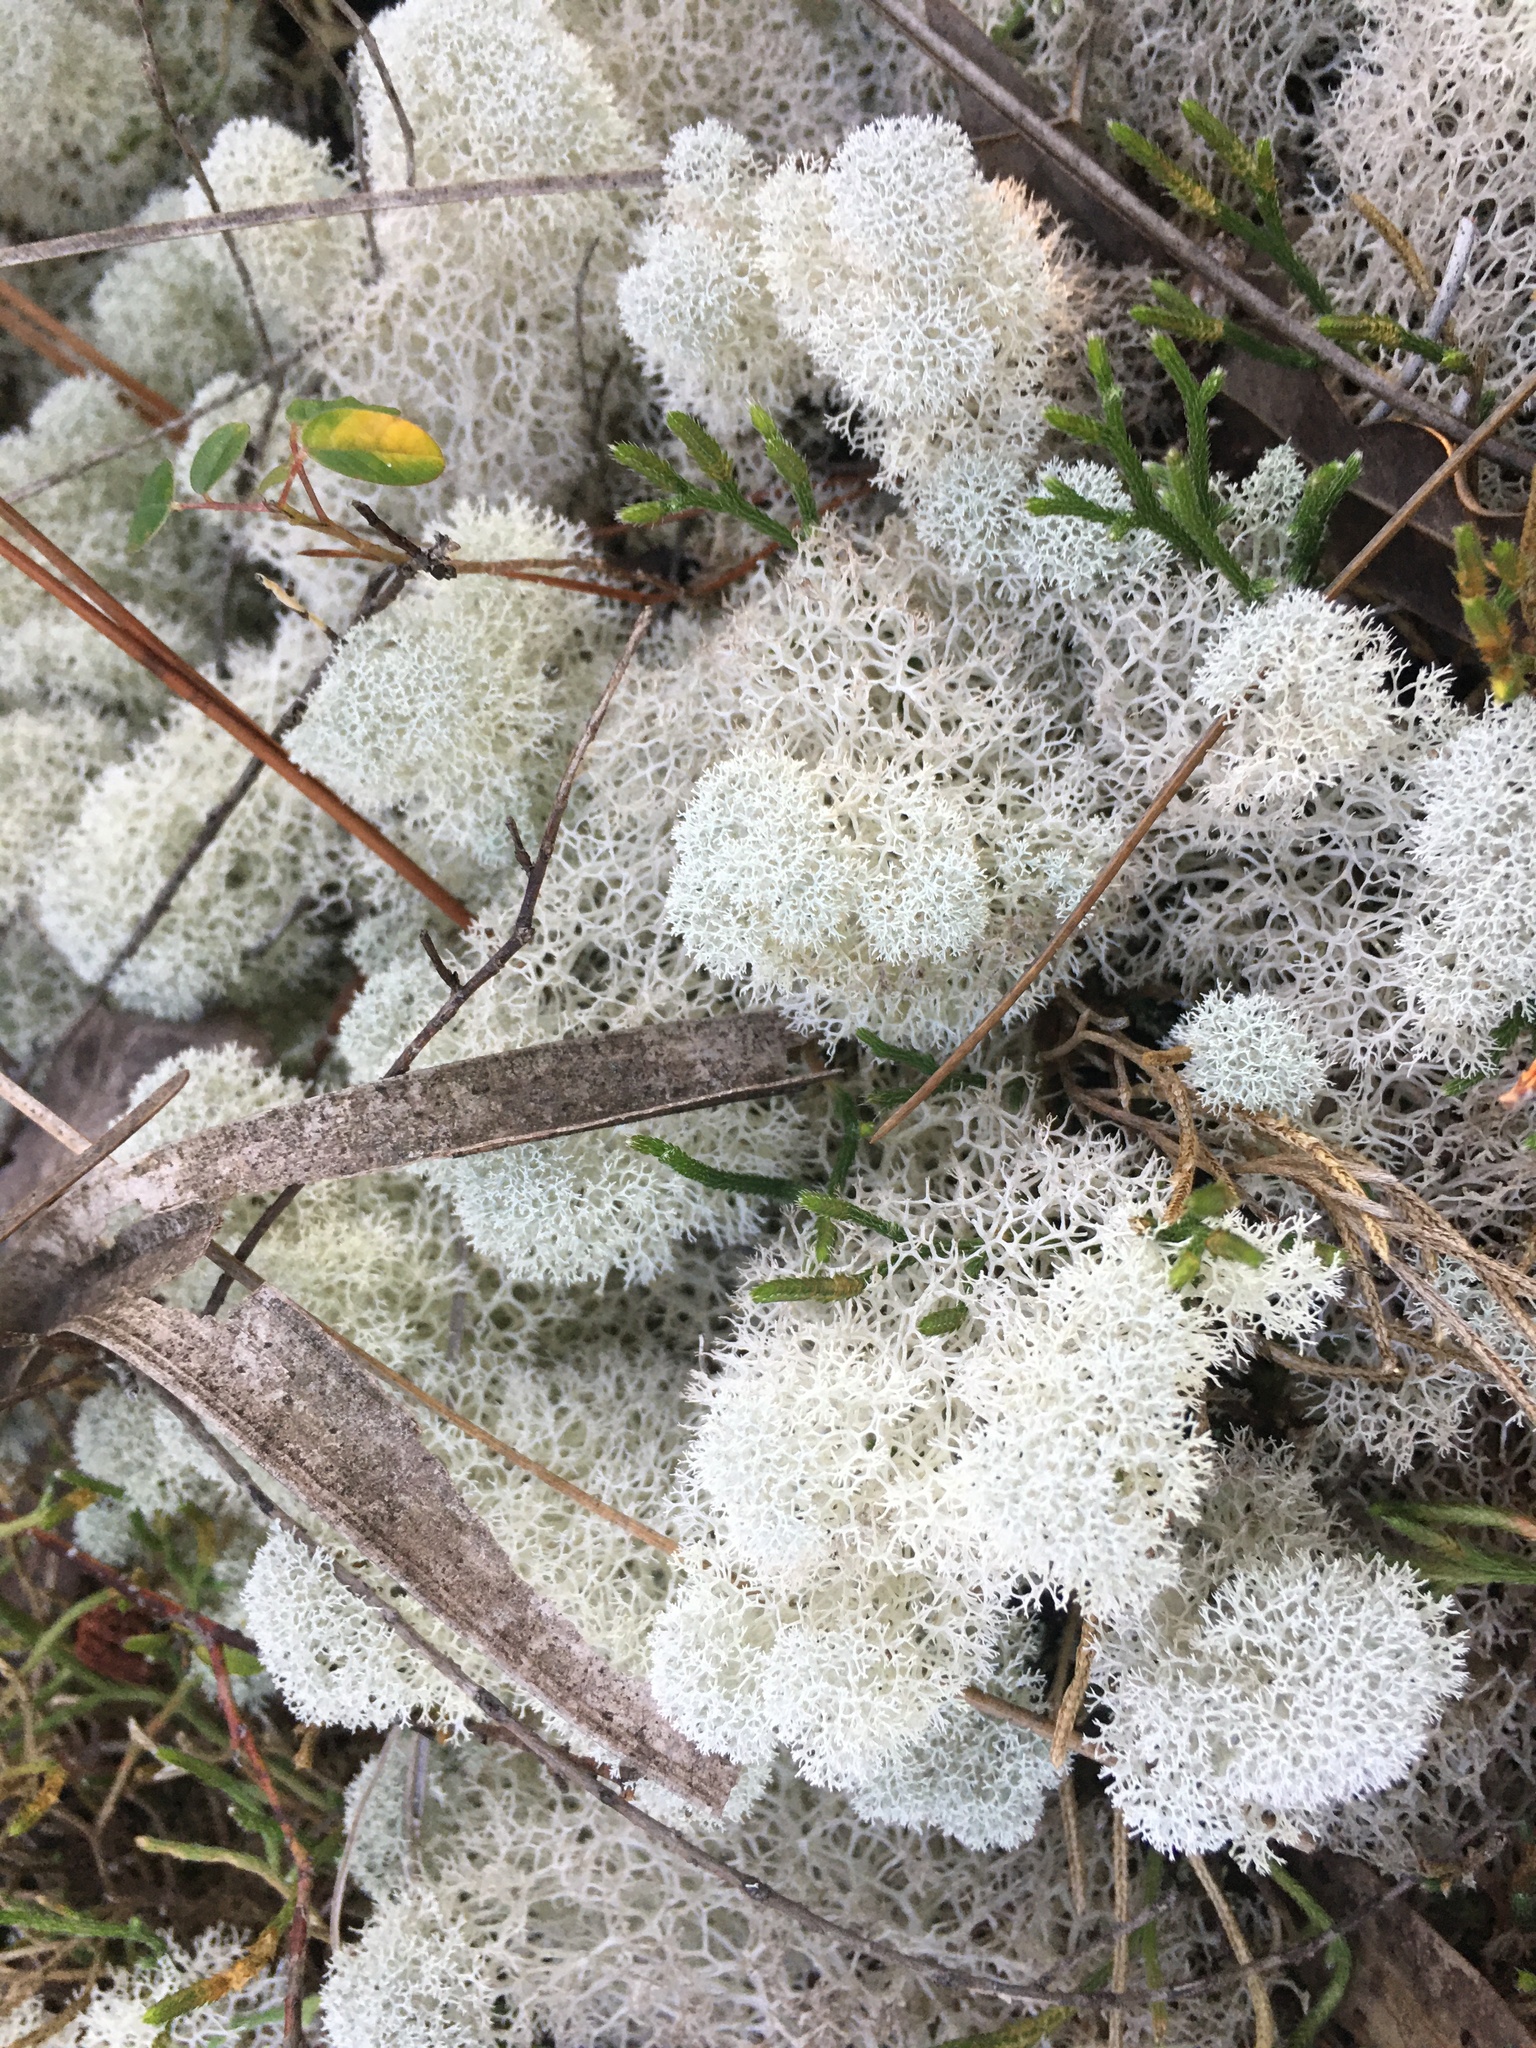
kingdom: Fungi
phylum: Ascomycota
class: Lecanoromycetes
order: Lecanorales
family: Cladoniaceae
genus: Cladonia
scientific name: Cladonia evansii
